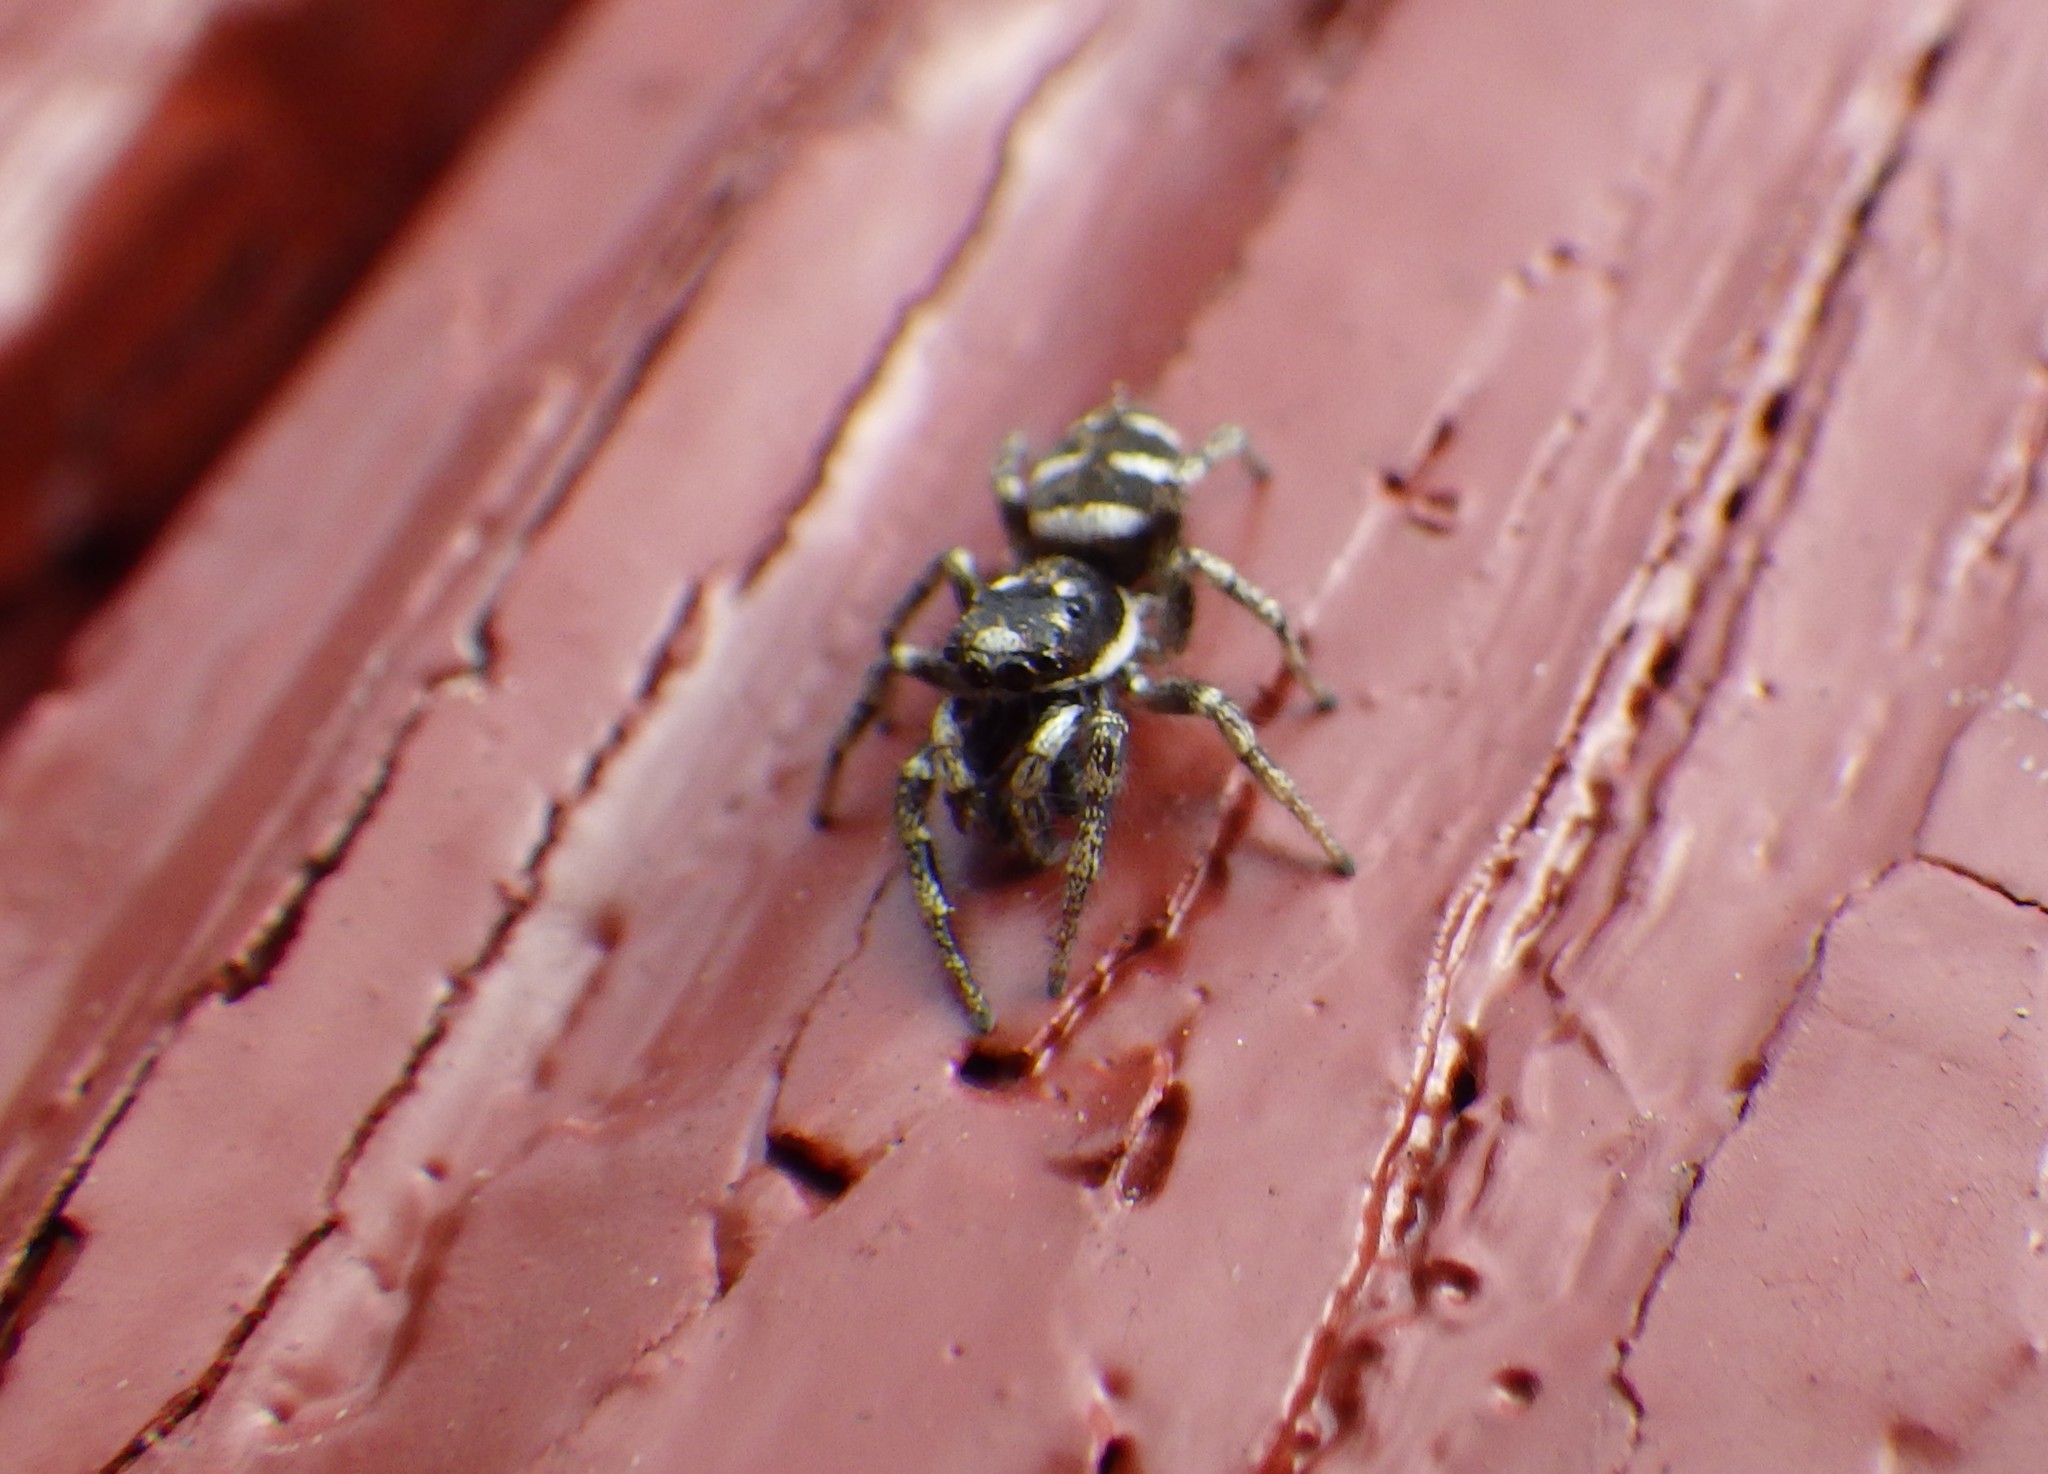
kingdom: Animalia
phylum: Arthropoda
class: Arachnida
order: Araneae
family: Salticidae
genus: Salticus
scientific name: Salticus scenicus
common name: Zebra jumper
